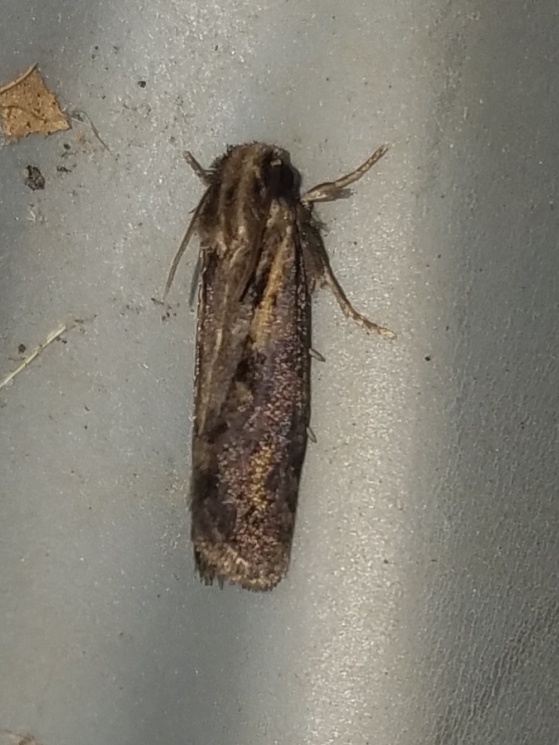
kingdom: Animalia
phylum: Arthropoda
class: Insecta
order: Lepidoptera
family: Tineidae
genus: Acrolophus
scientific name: Acrolophus popeanella
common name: Clemens' grass tubeworm moth
